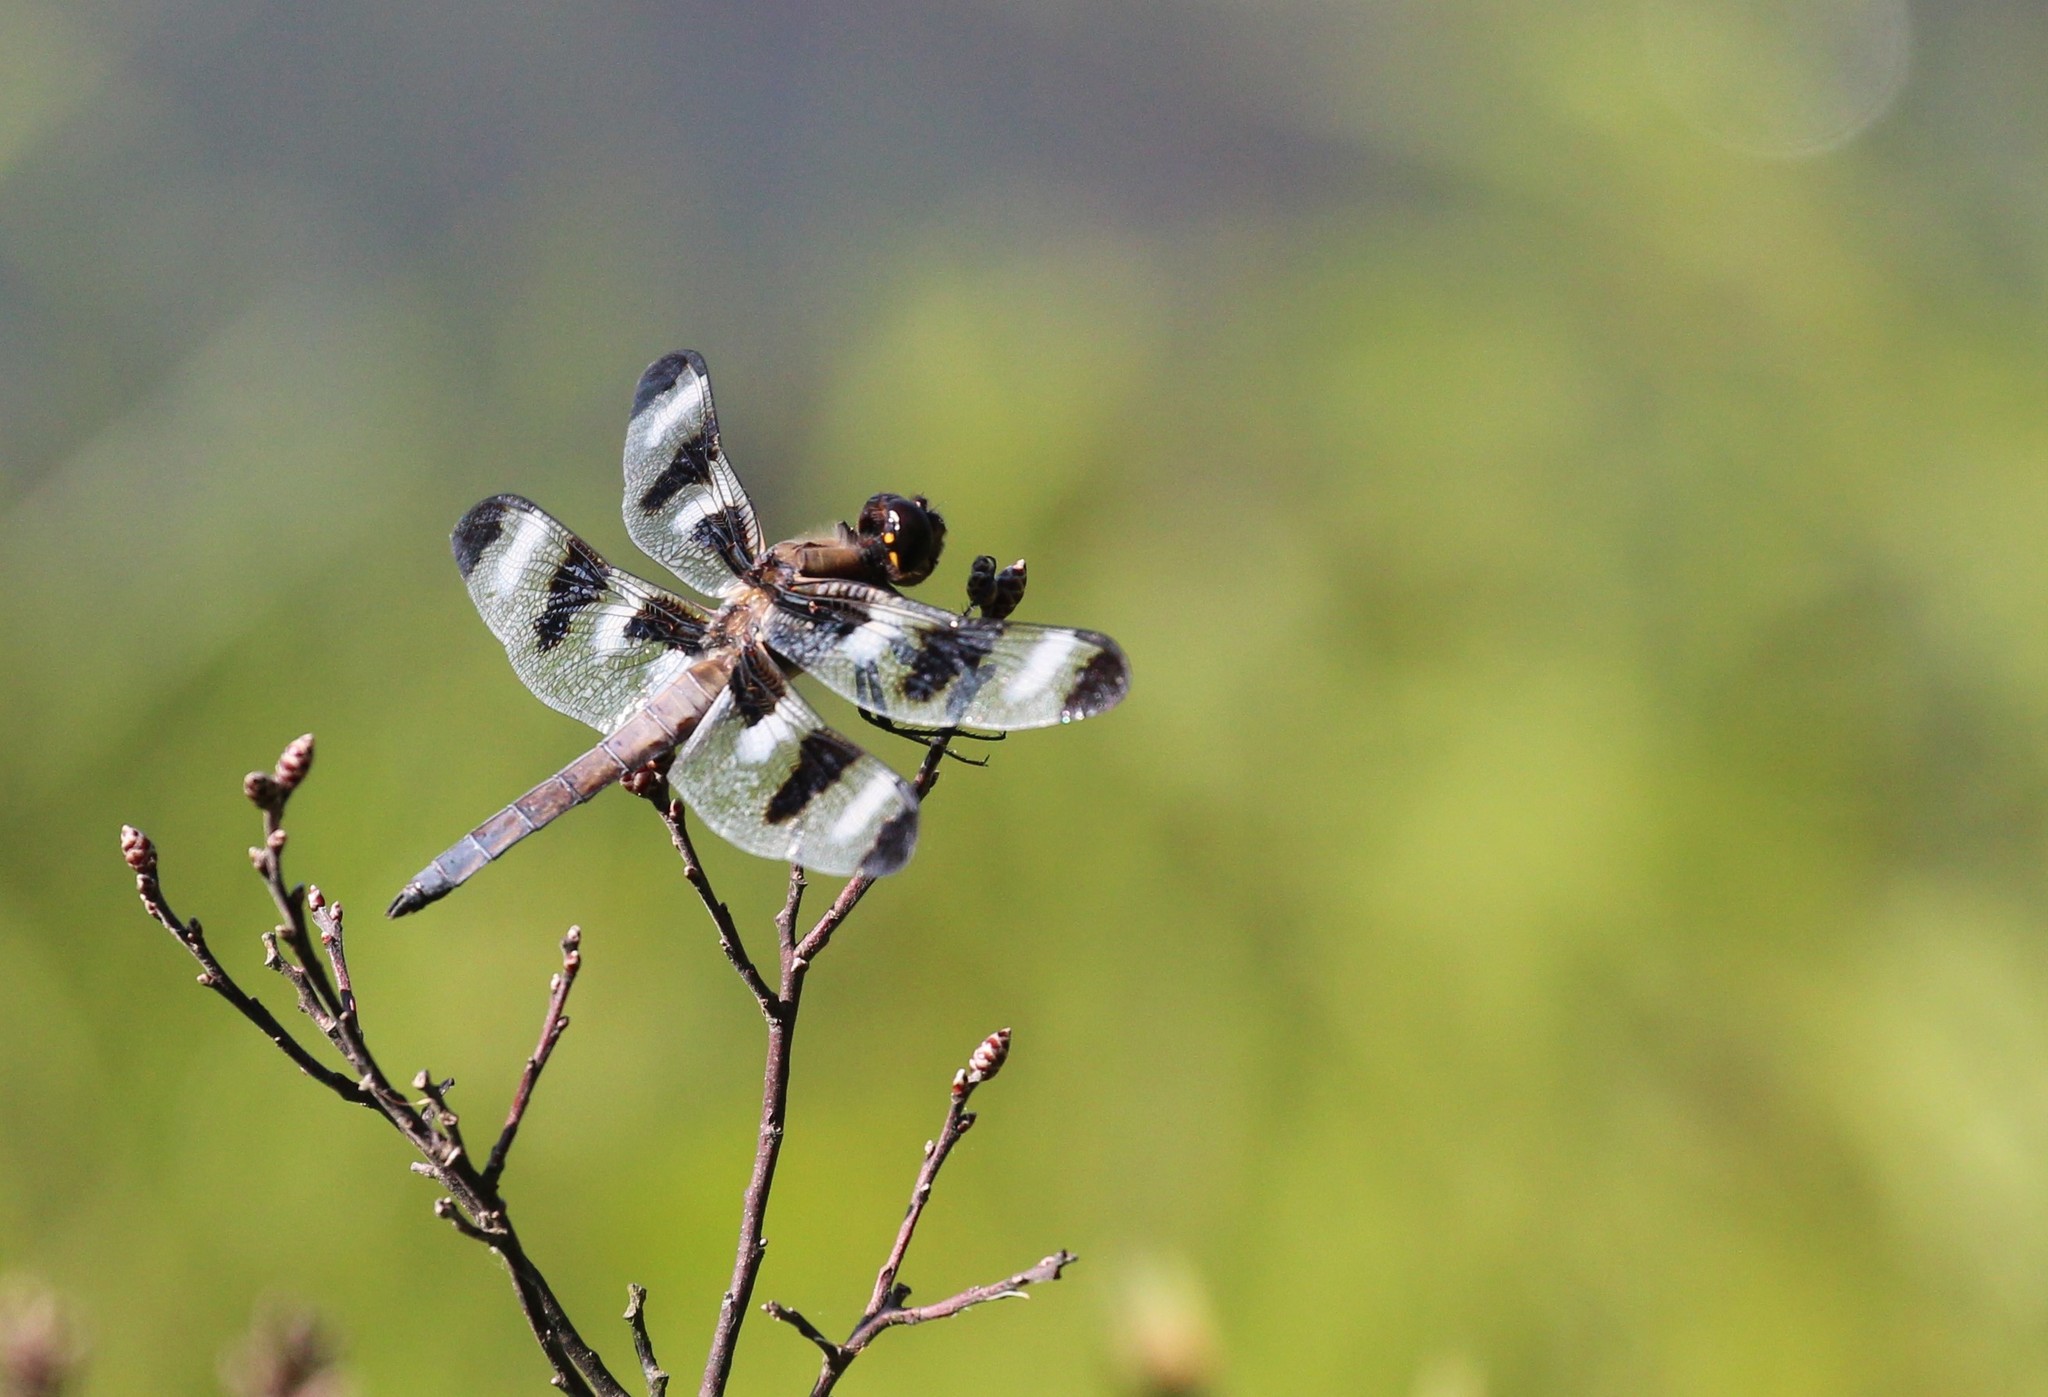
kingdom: Animalia
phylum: Arthropoda
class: Insecta
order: Odonata
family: Libellulidae
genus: Libellula
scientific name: Libellula pulchella
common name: Twelve-spotted skimmer
